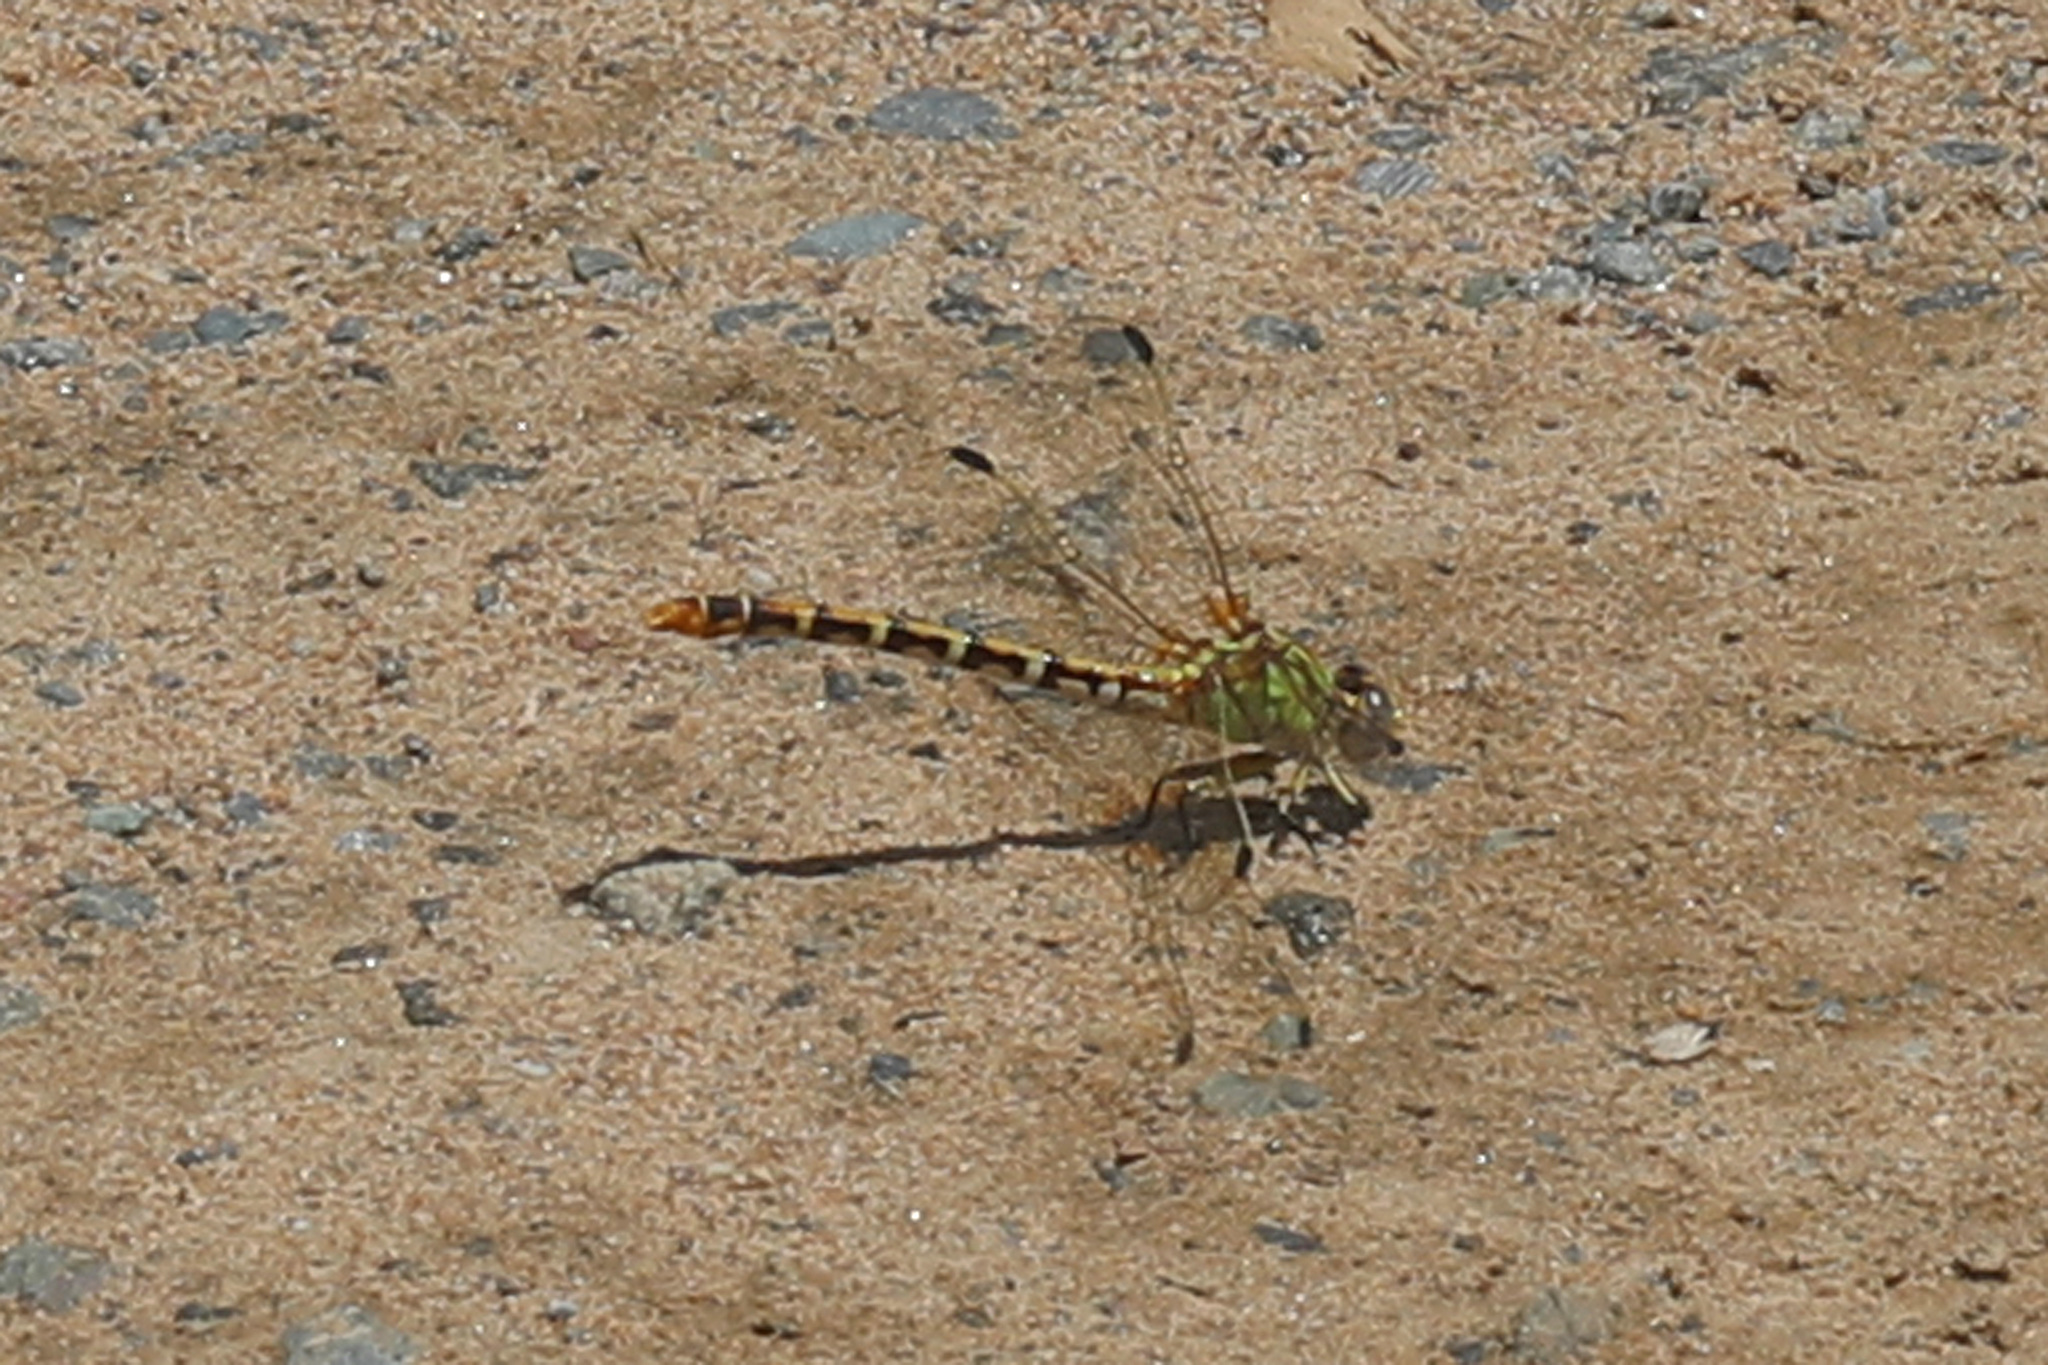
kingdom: Animalia
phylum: Arthropoda
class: Insecta
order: Odonata
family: Gomphidae
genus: Erpetogomphus
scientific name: Erpetogomphus designatus
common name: Eastern ringtail
